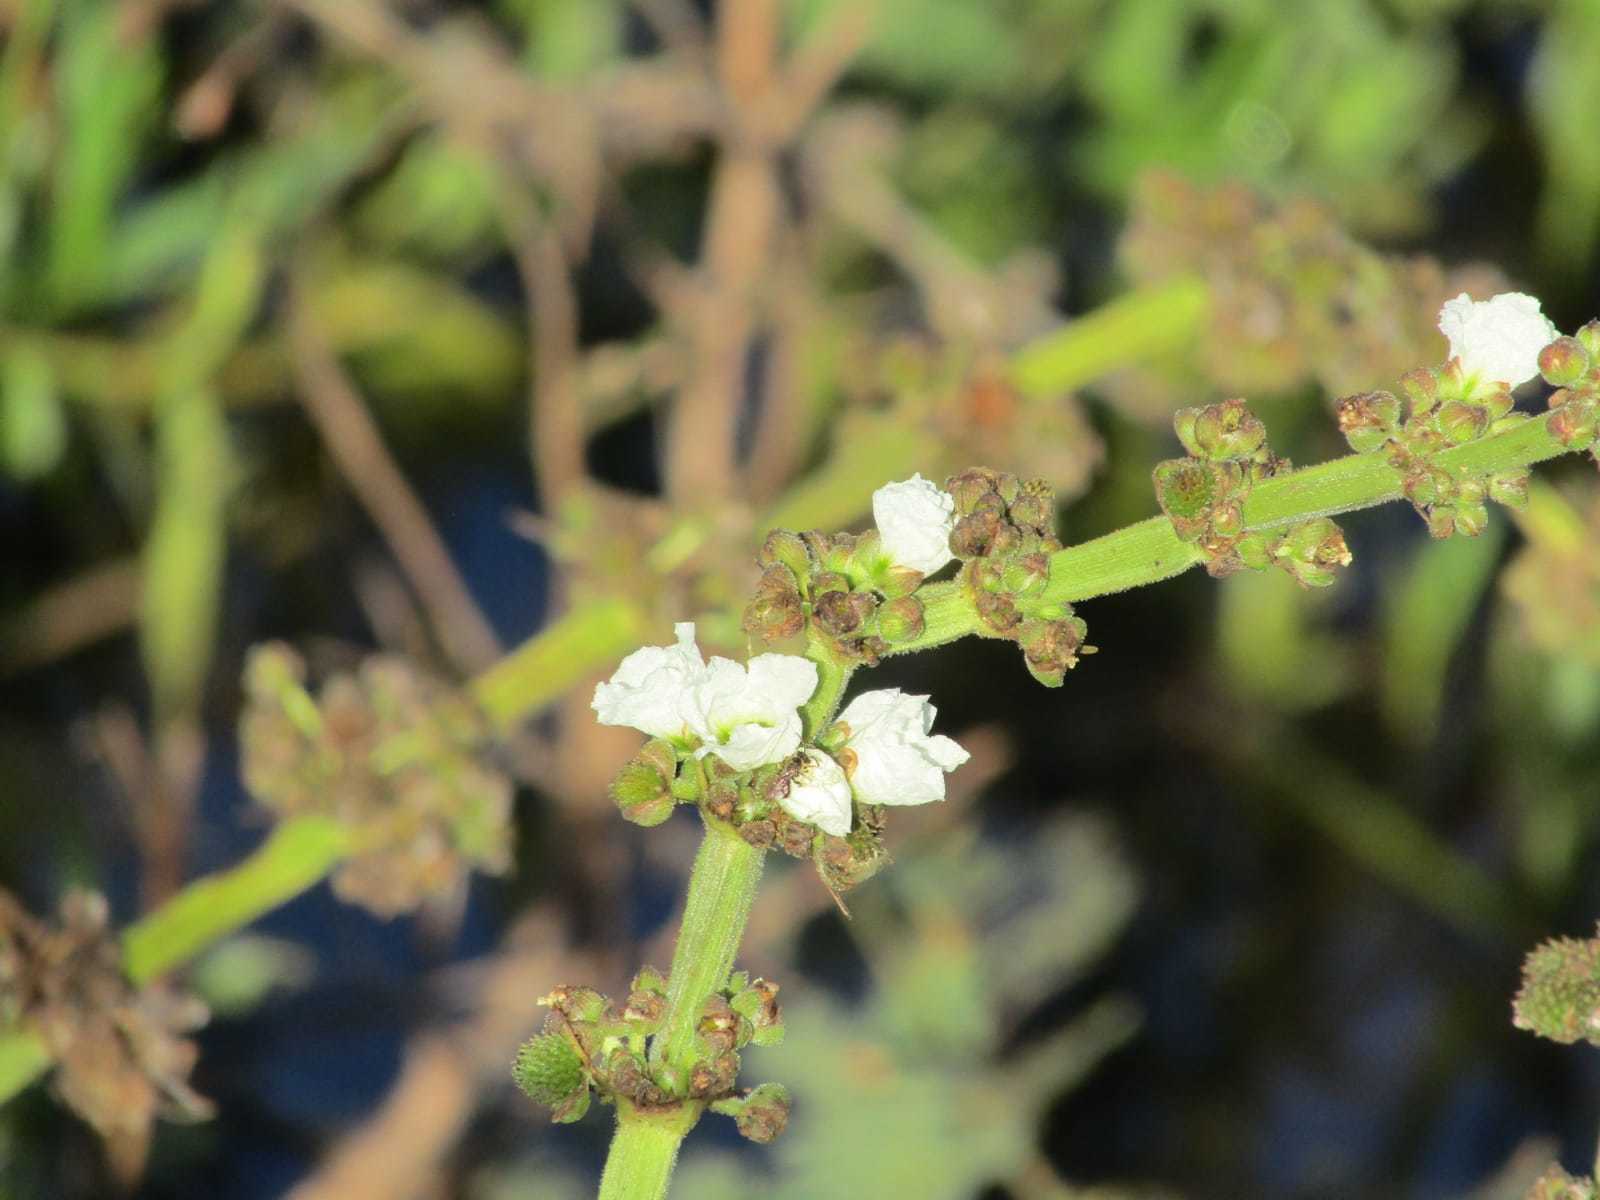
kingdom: Plantae
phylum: Tracheophyta
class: Liliopsida
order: Alismatales
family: Alismataceae
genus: Aquarius
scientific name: Aquarius pubescens
